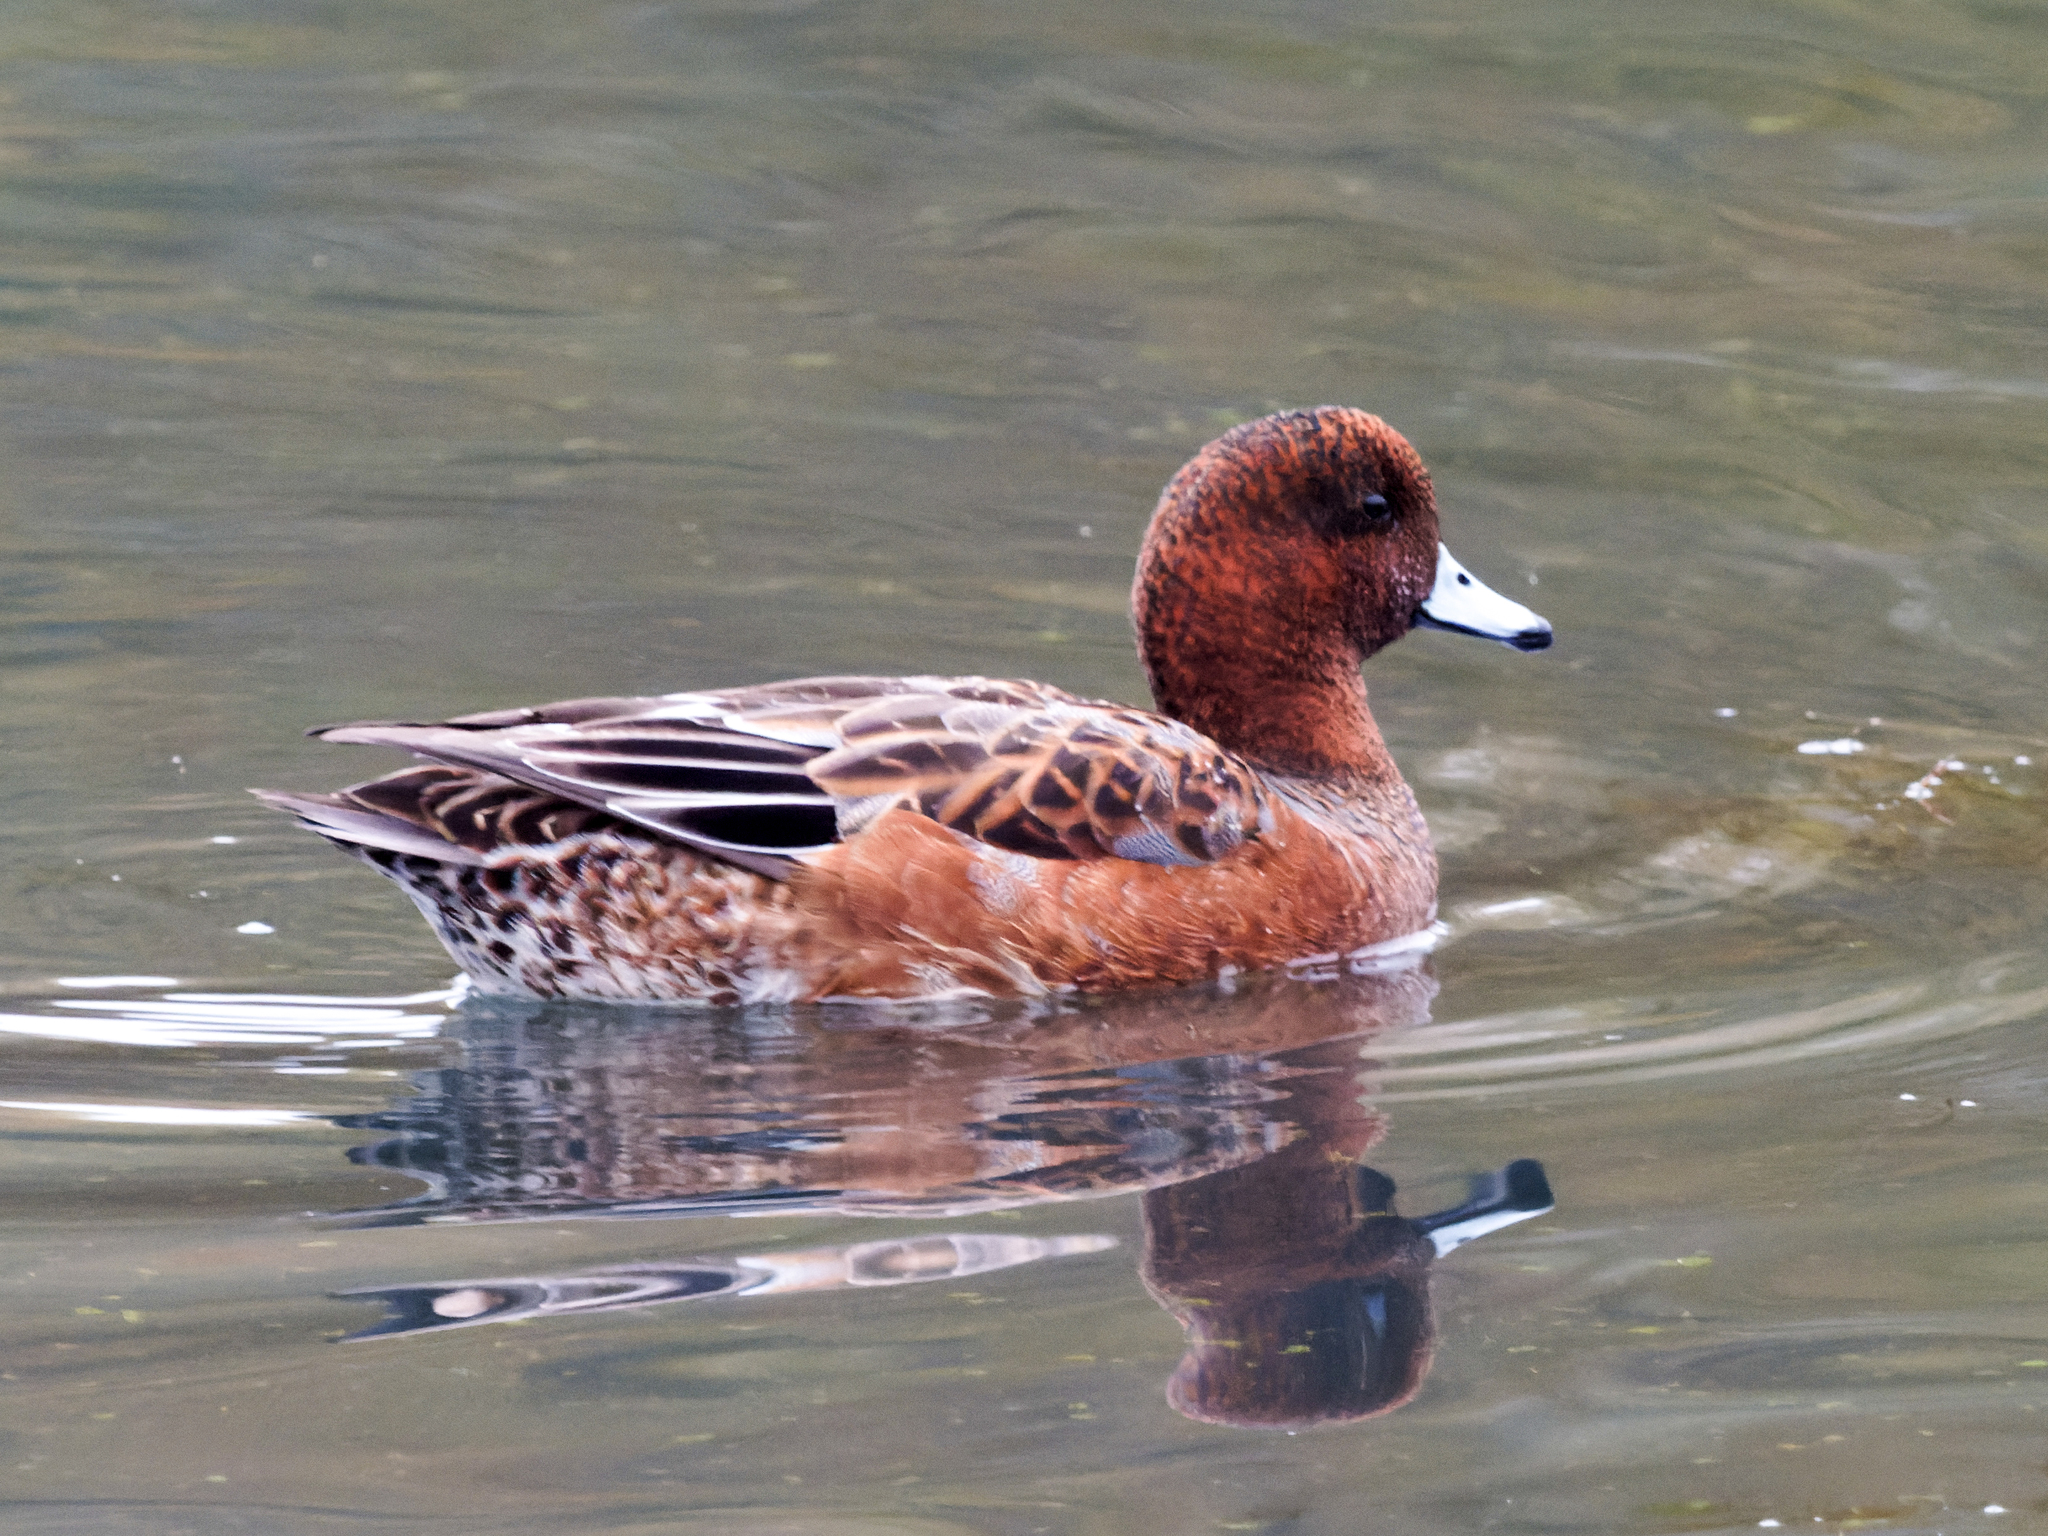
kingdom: Animalia
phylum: Chordata
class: Aves
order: Anseriformes
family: Anatidae
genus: Mareca
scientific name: Mareca penelope
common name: Eurasian wigeon
